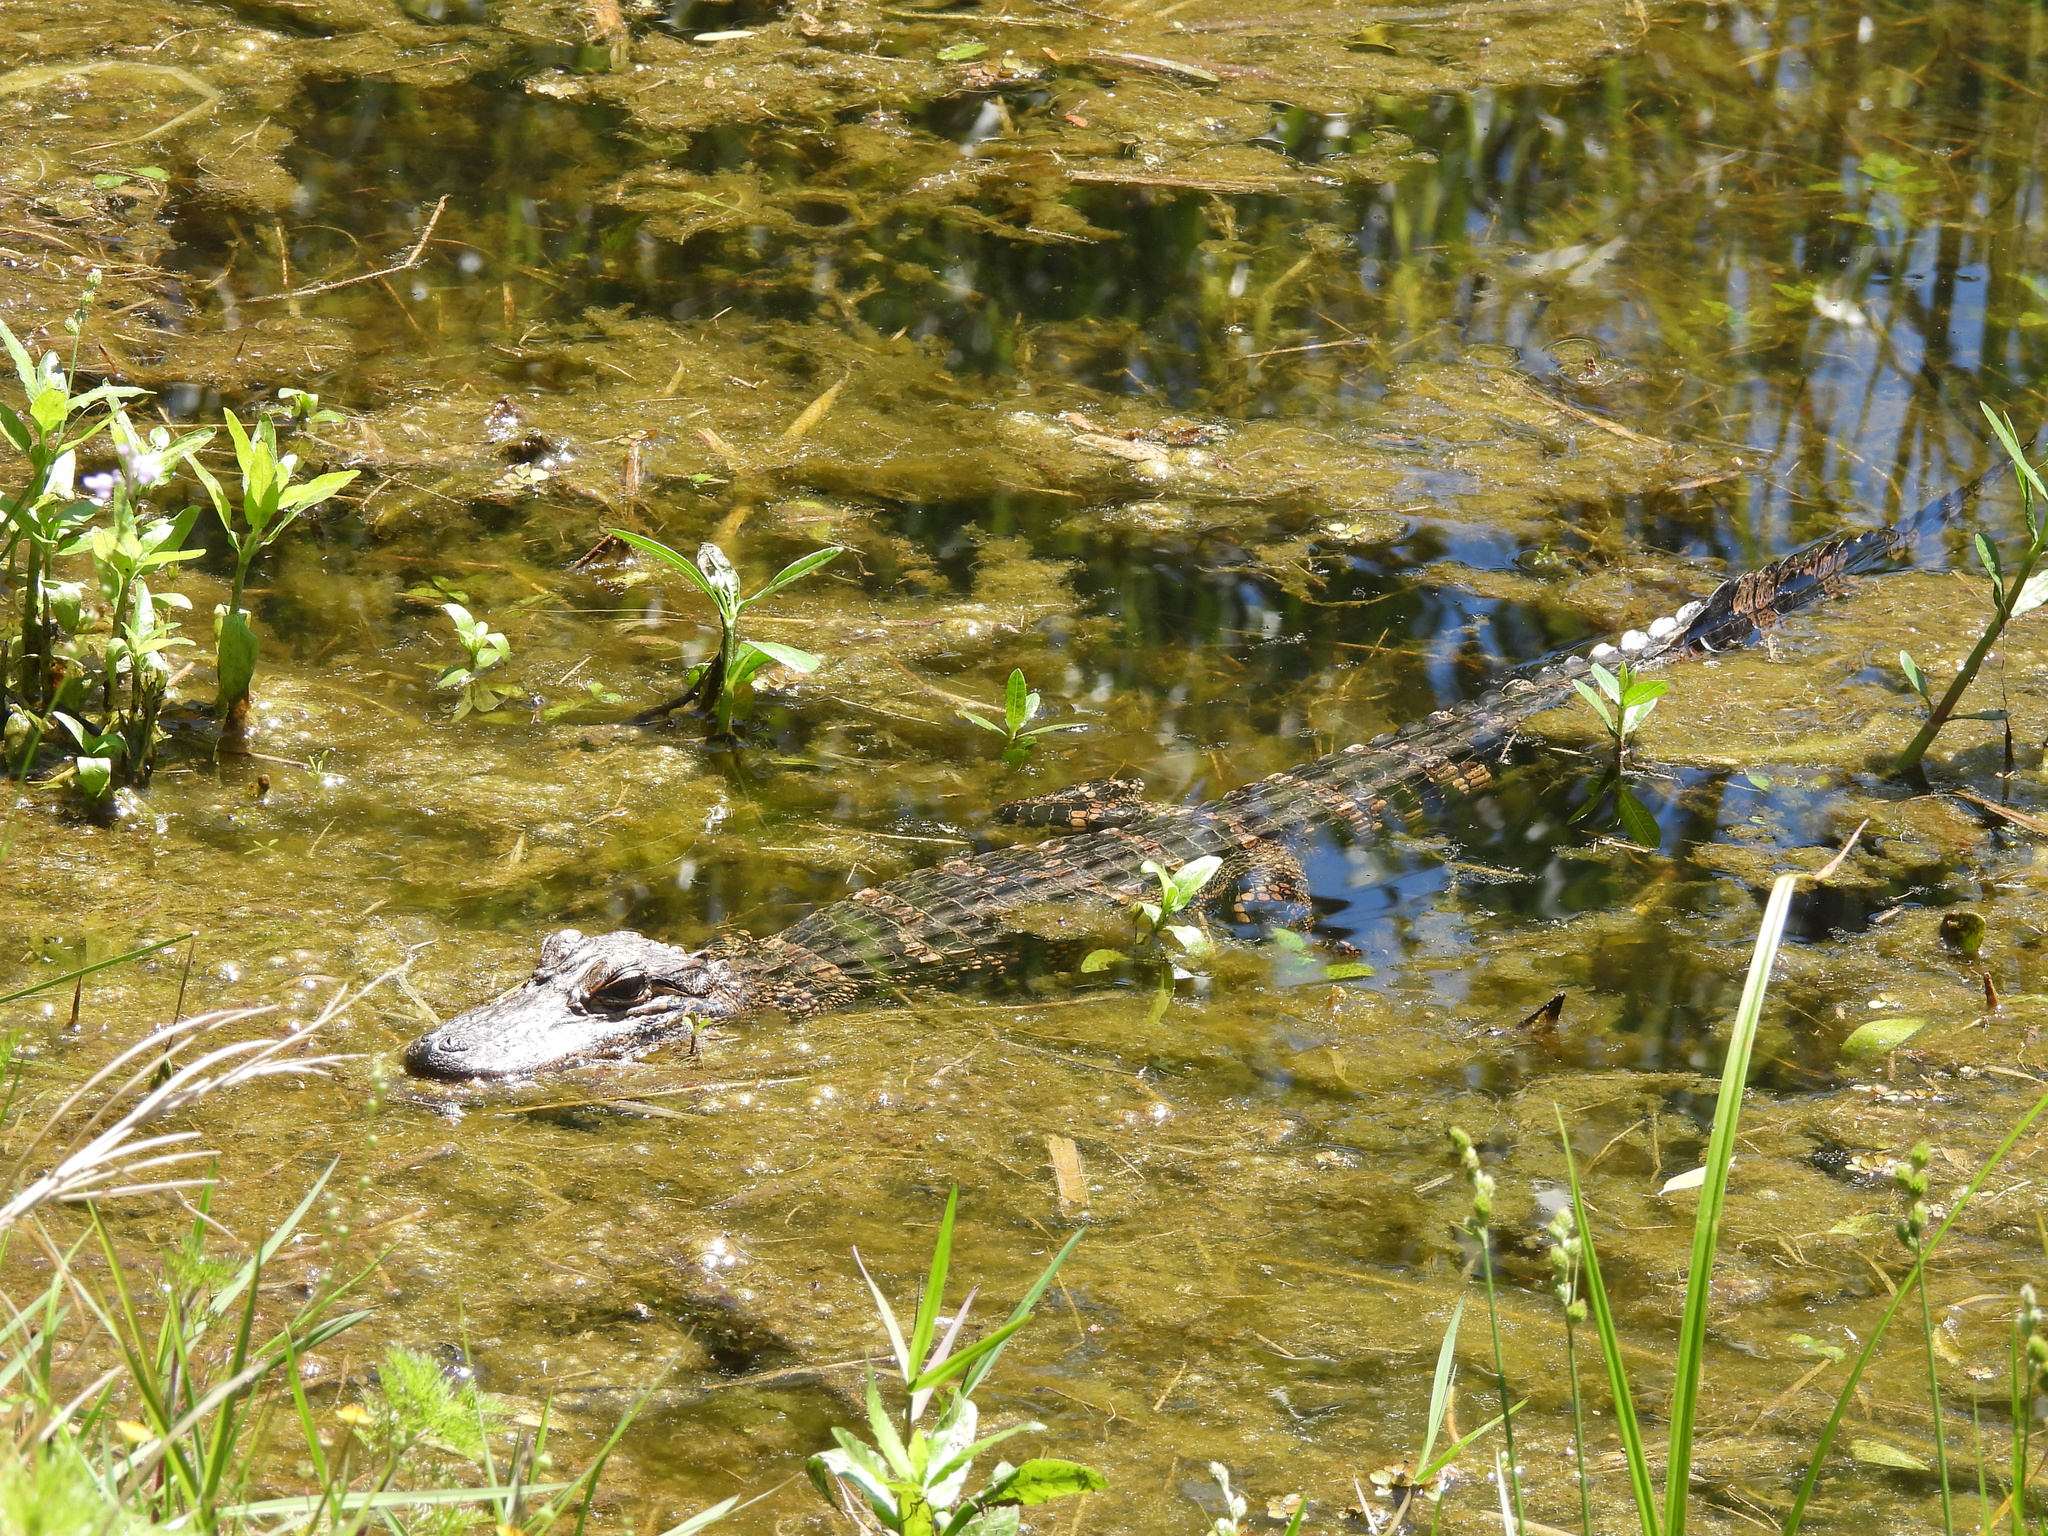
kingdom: Animalia
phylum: Chordata
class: Crocodylia
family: Alligatoridae
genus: Alligator
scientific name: Alligator mississippiensis
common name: American alligator
